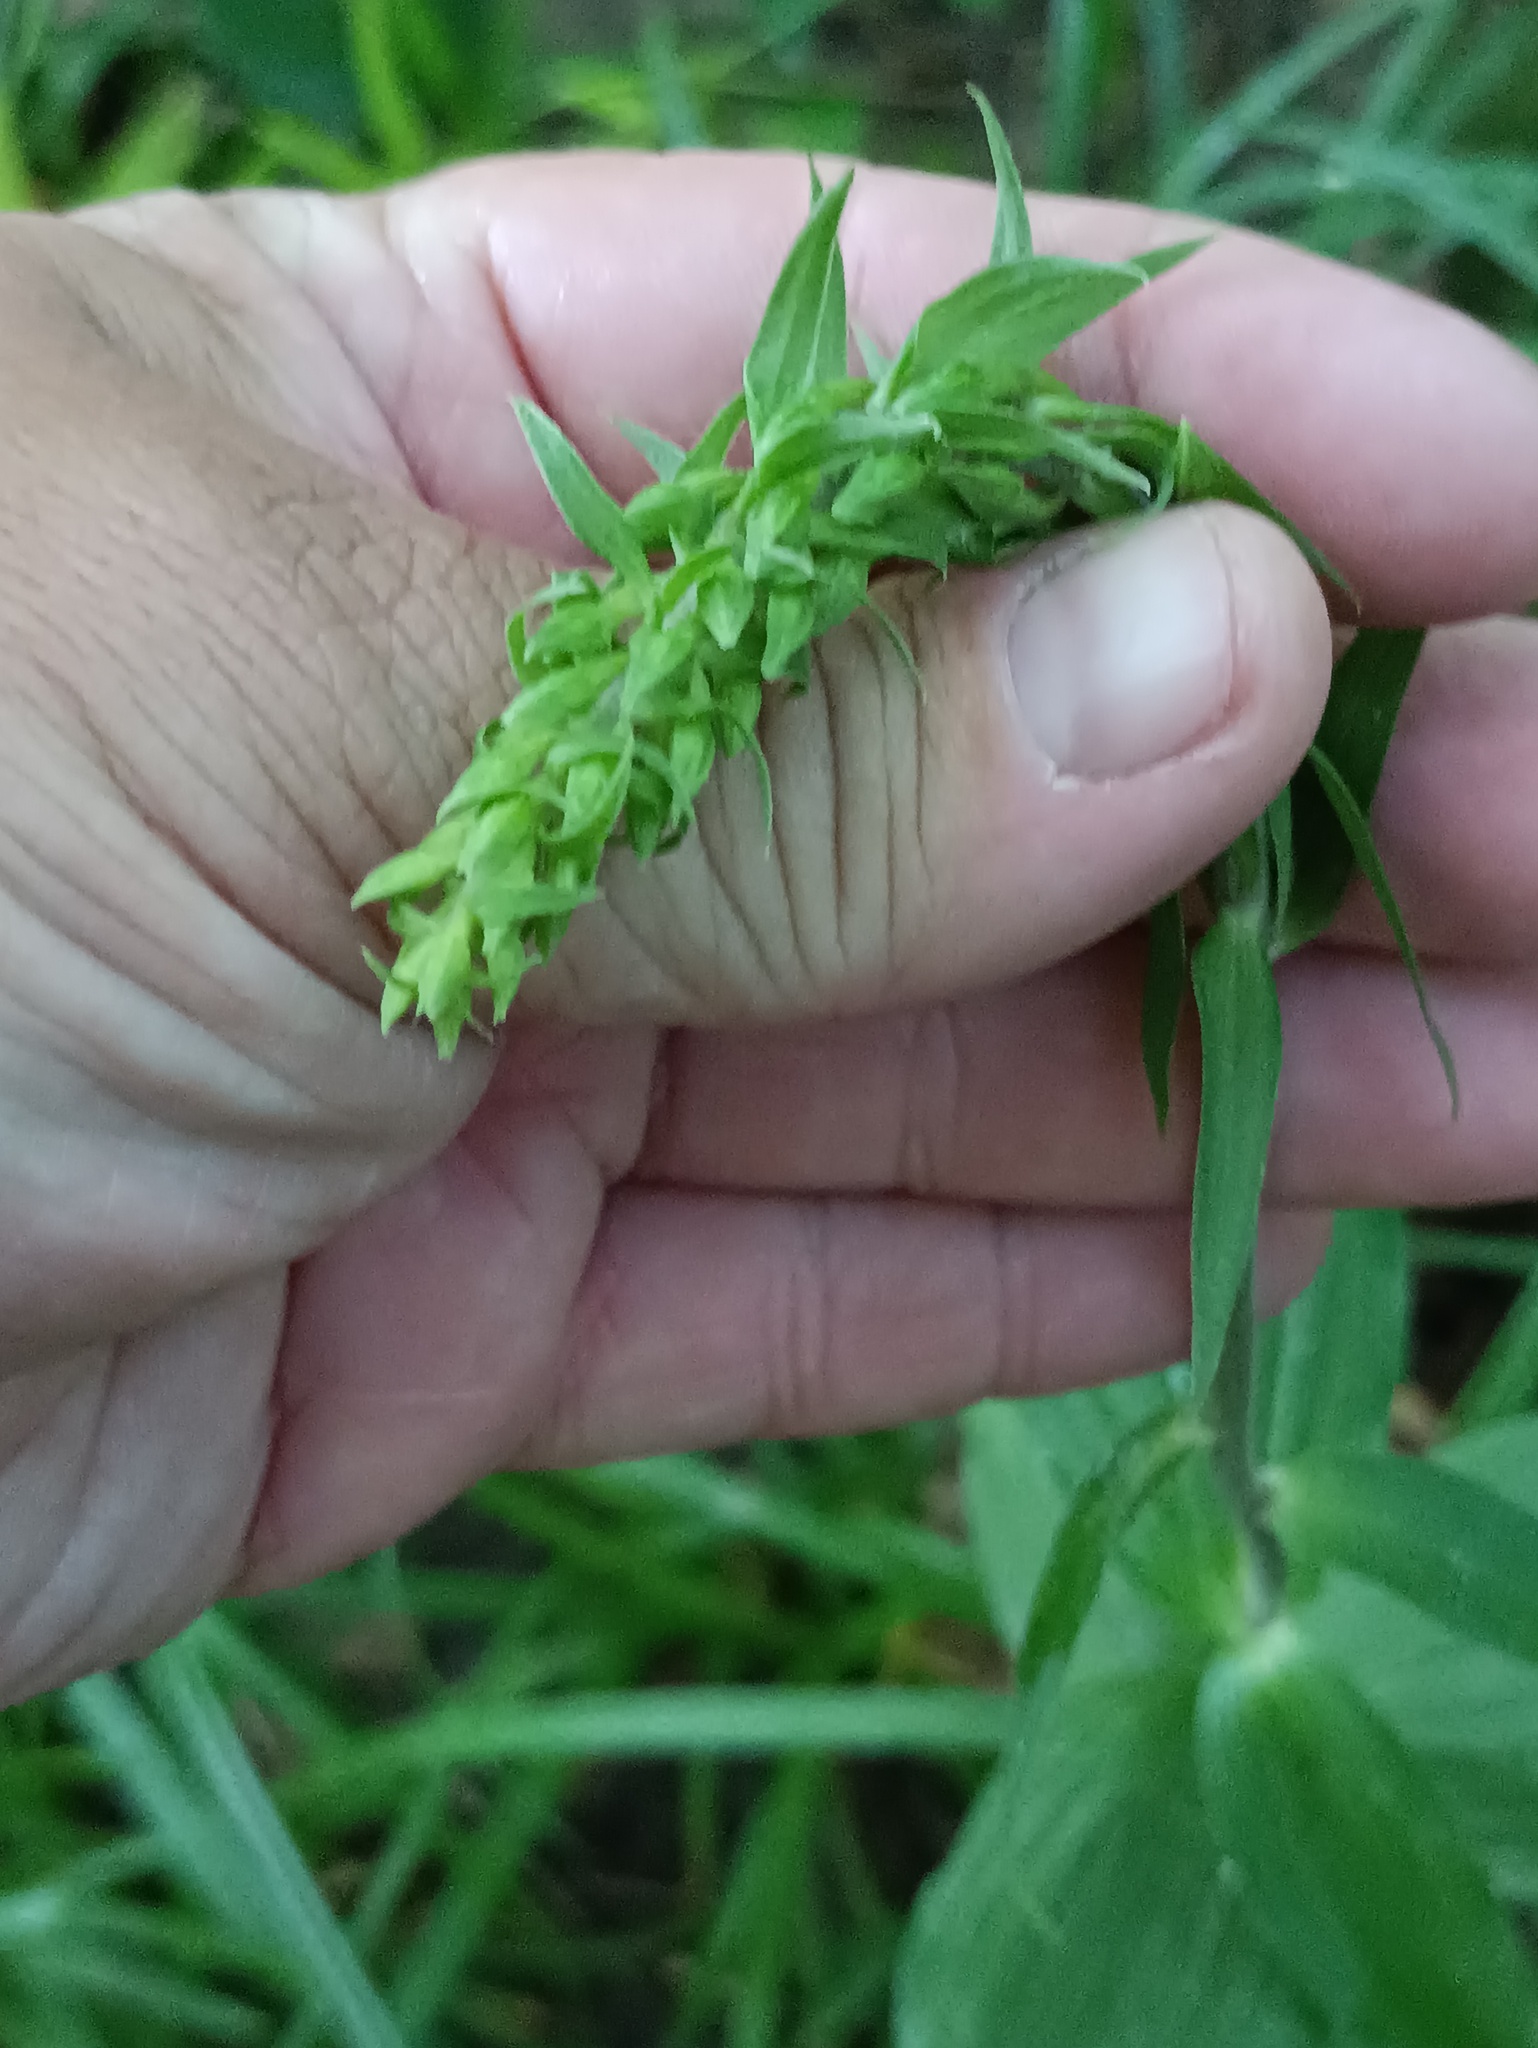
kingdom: Plantae
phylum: Tracheophyta
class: Liliopsida
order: Asparagales
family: Orchidaceae
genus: Epipactis
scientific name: Epipactis helleborine
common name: Broad-leaved helleborine
